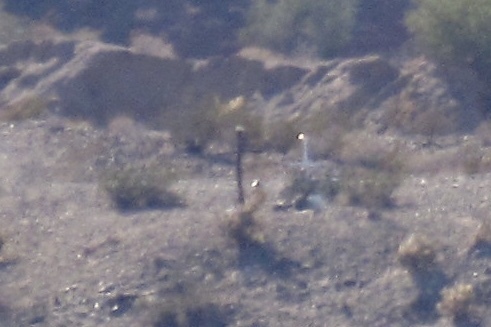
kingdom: Plantae
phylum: Tracheophyta
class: Magnoliopsida
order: Caryophyllales
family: Cactaceae
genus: Carnegiea
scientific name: Carnegiea gigantea
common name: Saguaro
